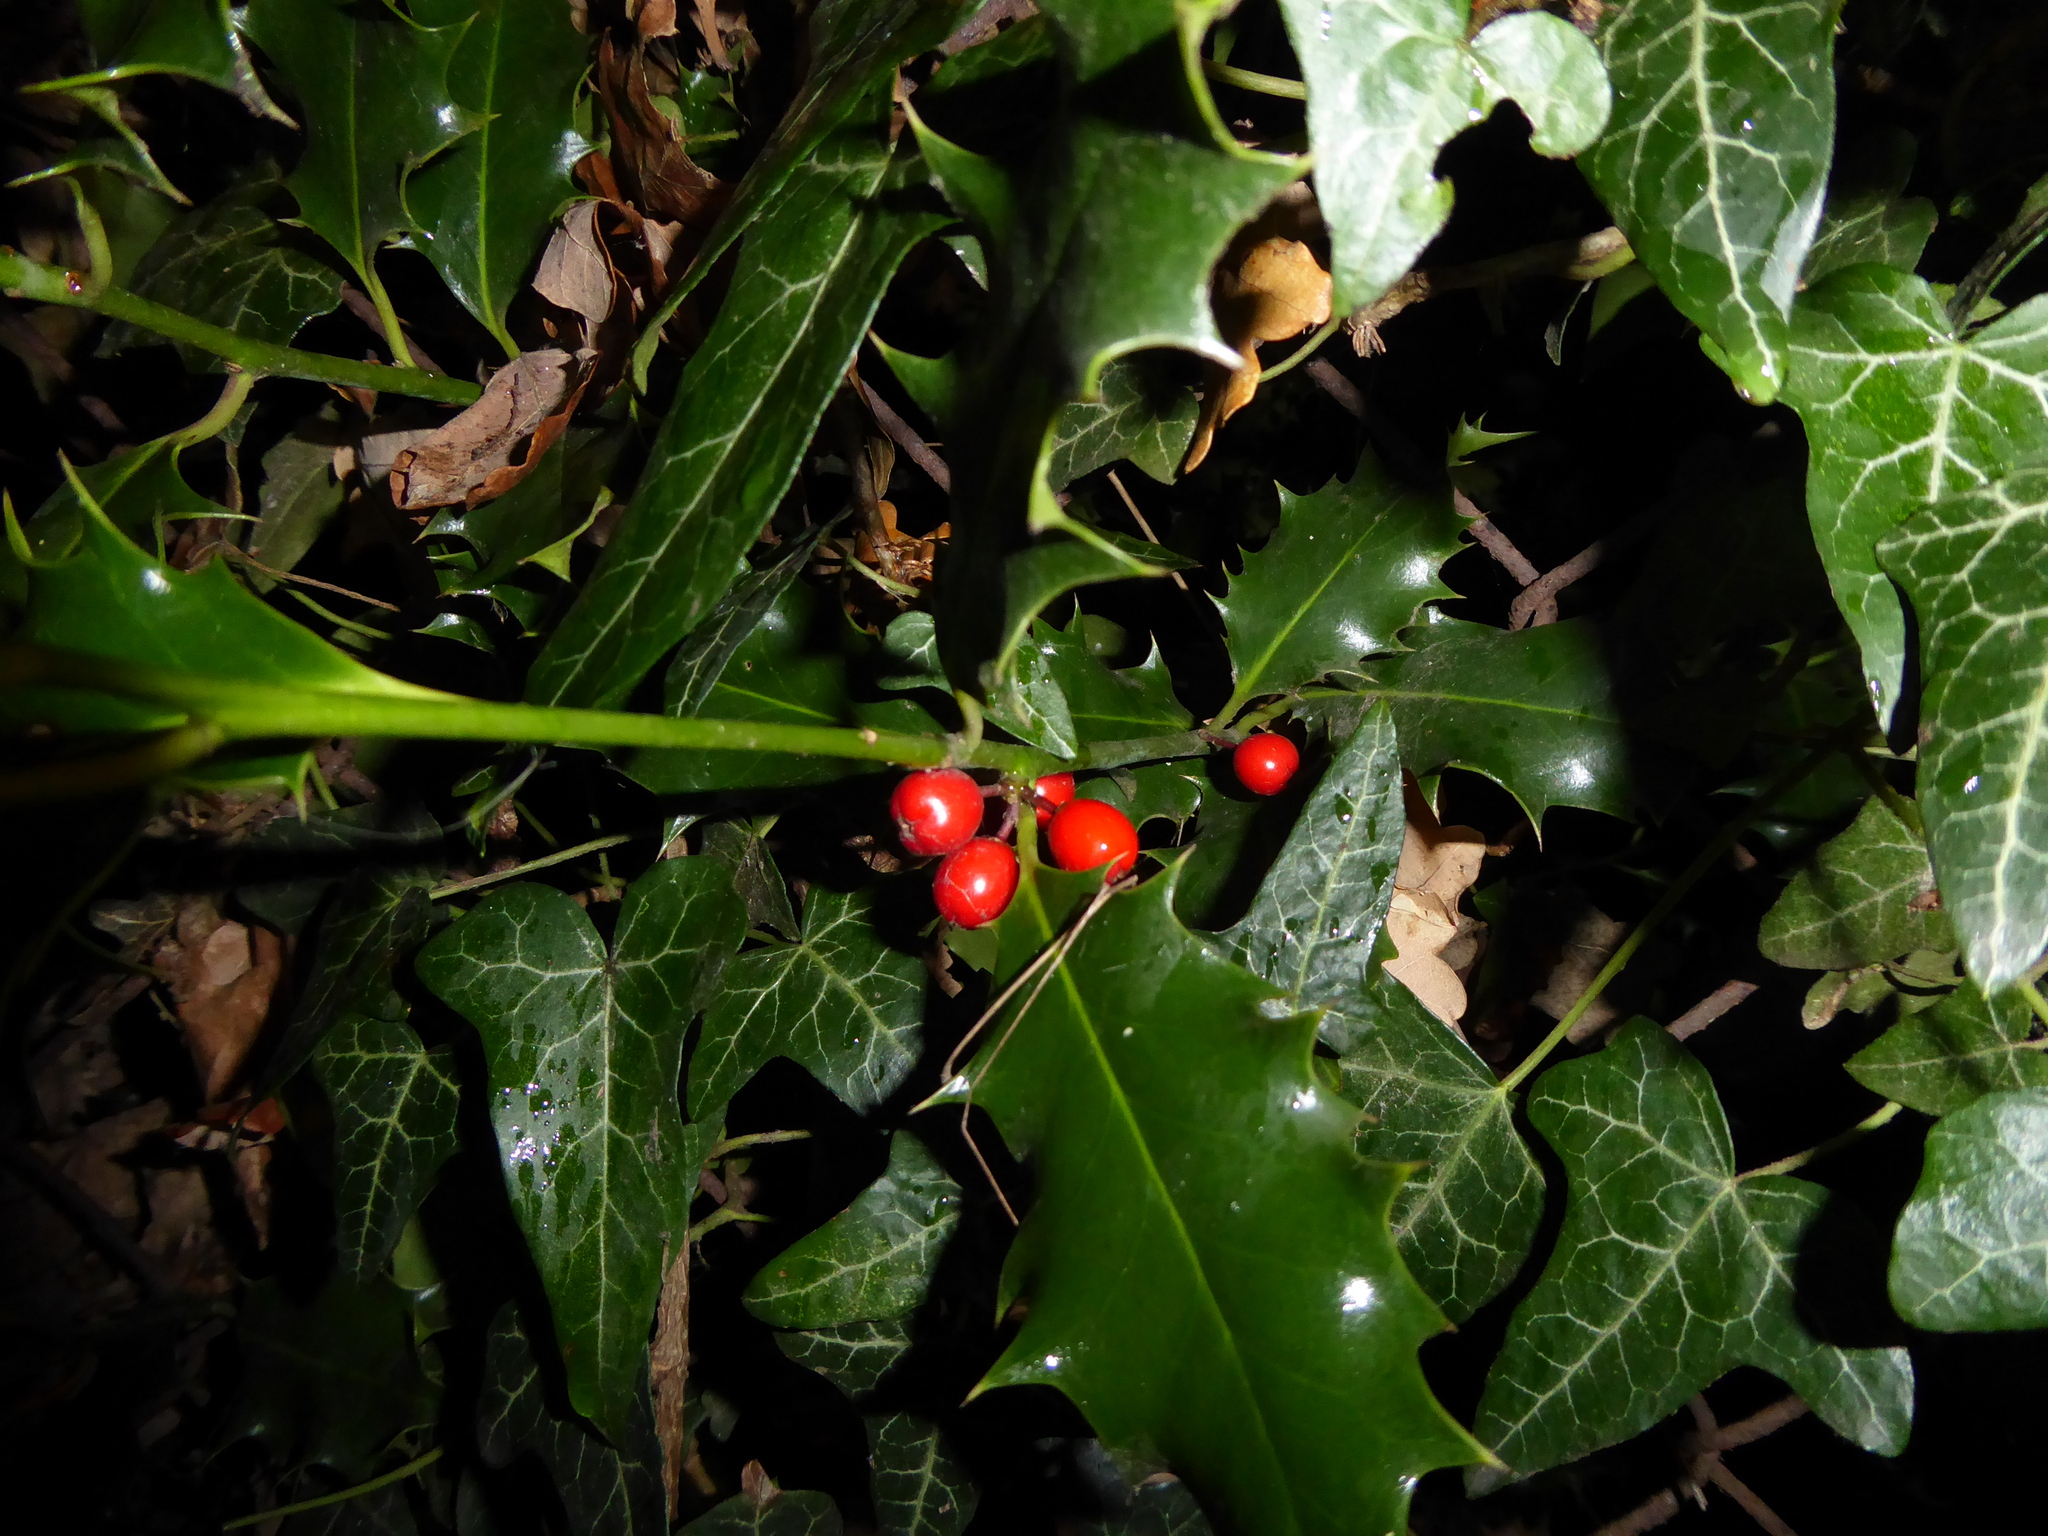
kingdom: Plantae
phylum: Tracheophyta
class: Magnoliopsida
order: Aquifoliales
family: Aquifoliaceae
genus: Ilex
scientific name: Ilex aquifolium
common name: English holly
